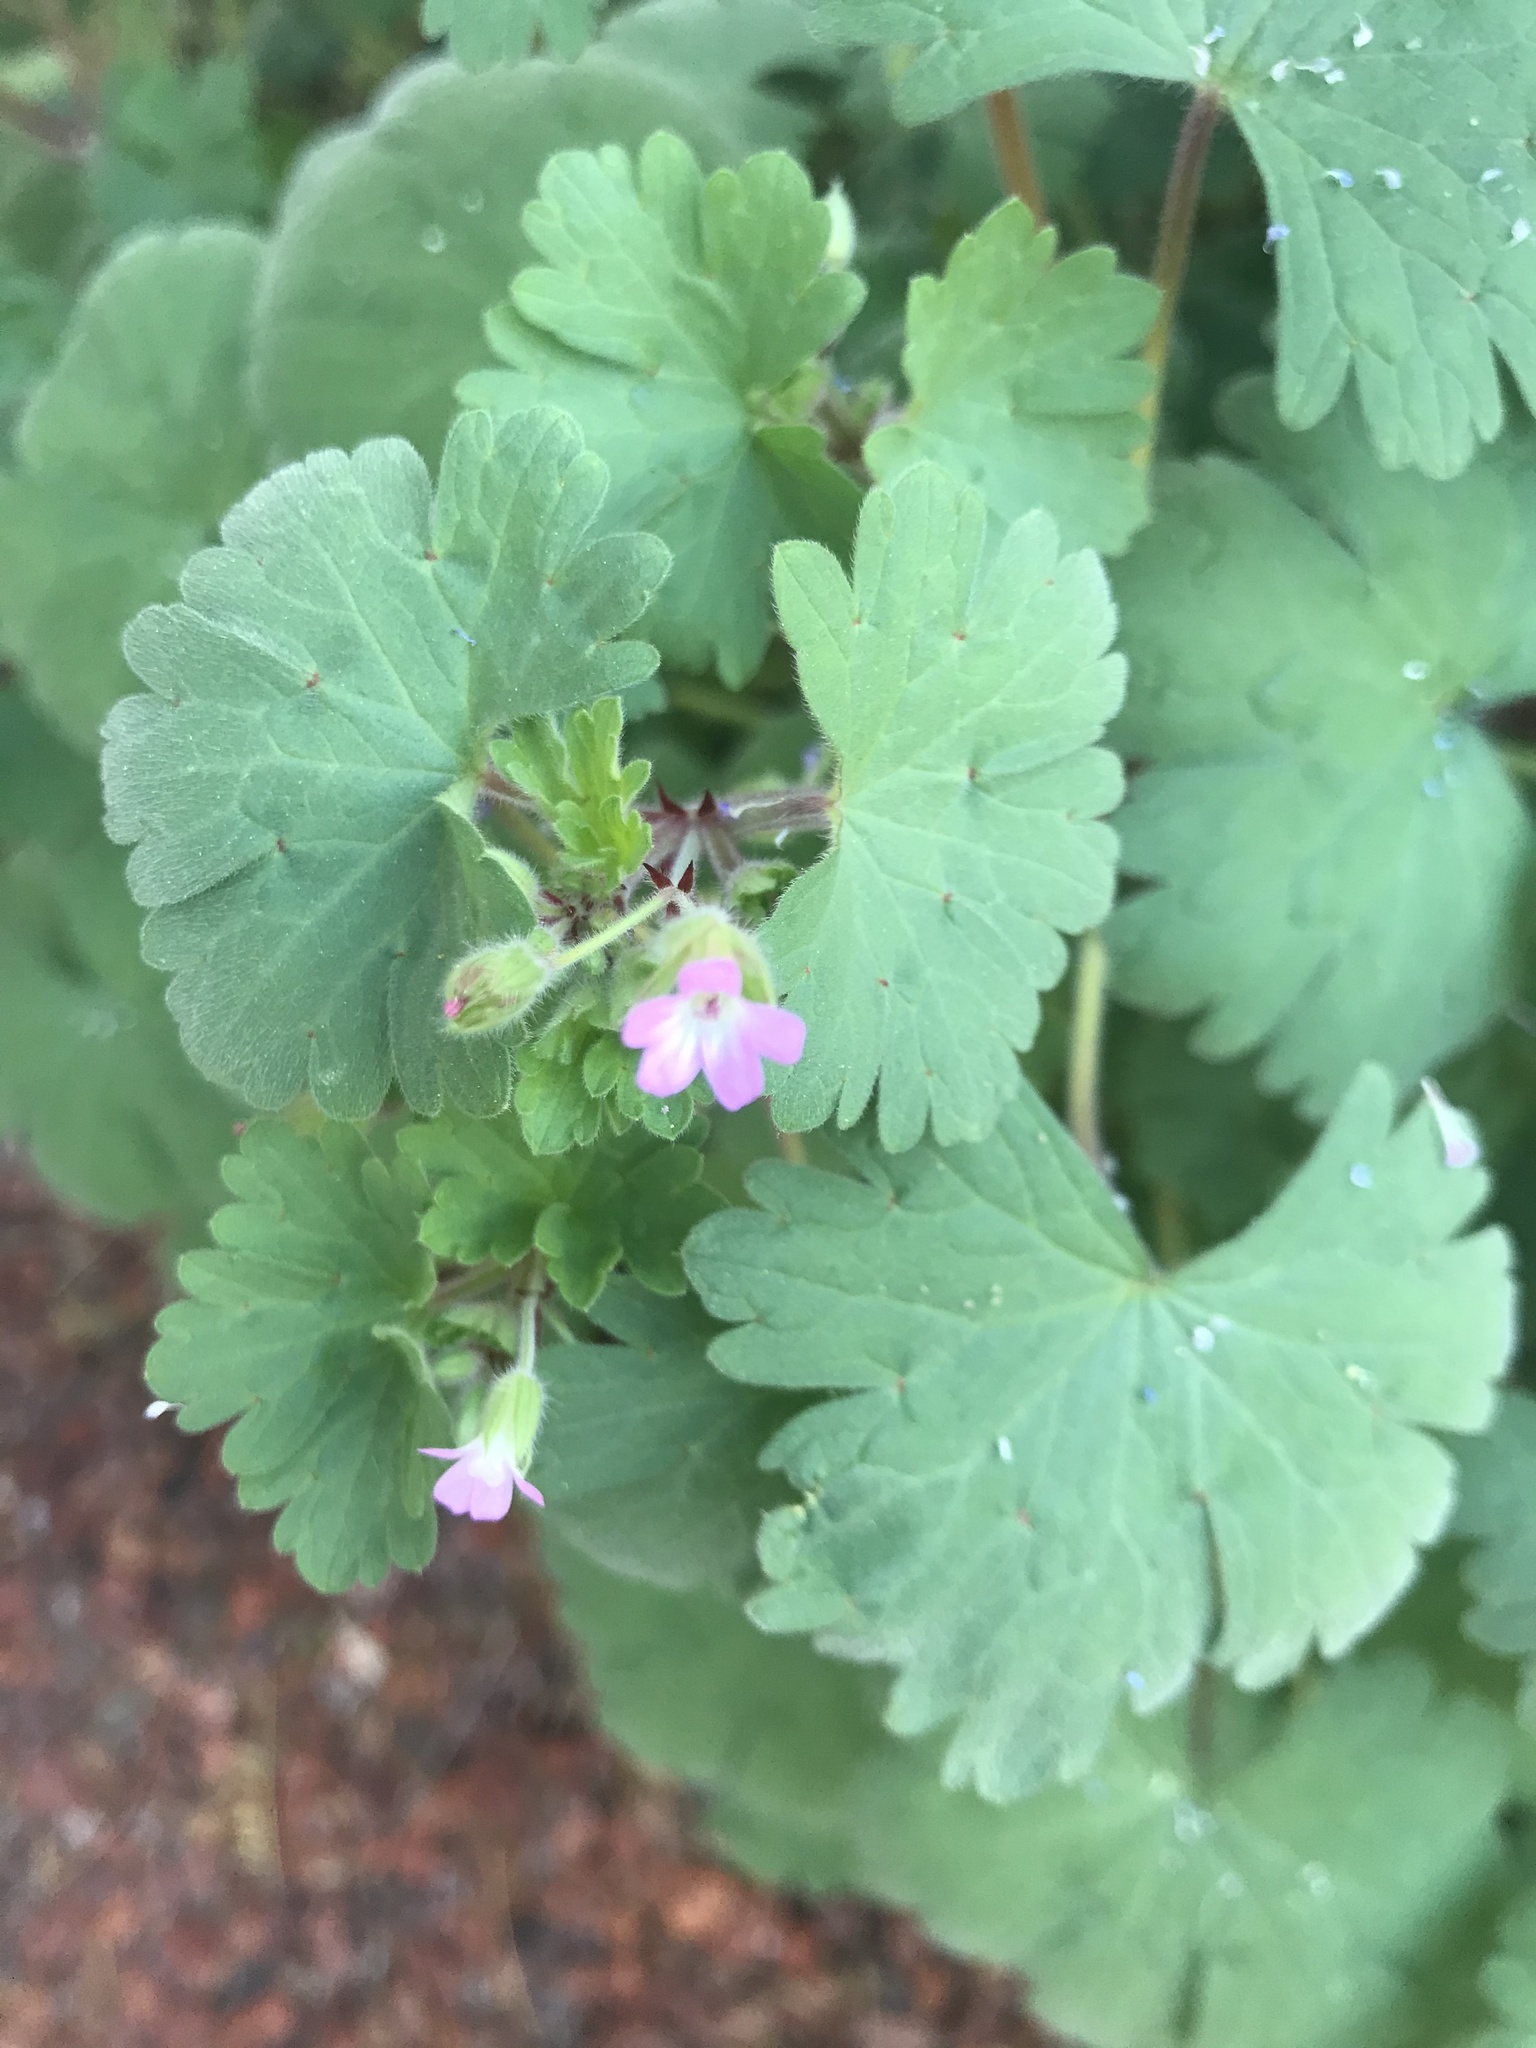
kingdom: Plantae
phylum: Tracheophyta
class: Magnoliopsida
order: Geraniales
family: Geraniaceae
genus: Geranium
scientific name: Geranium rotundifolium
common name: Round-leaved crane's-bill
